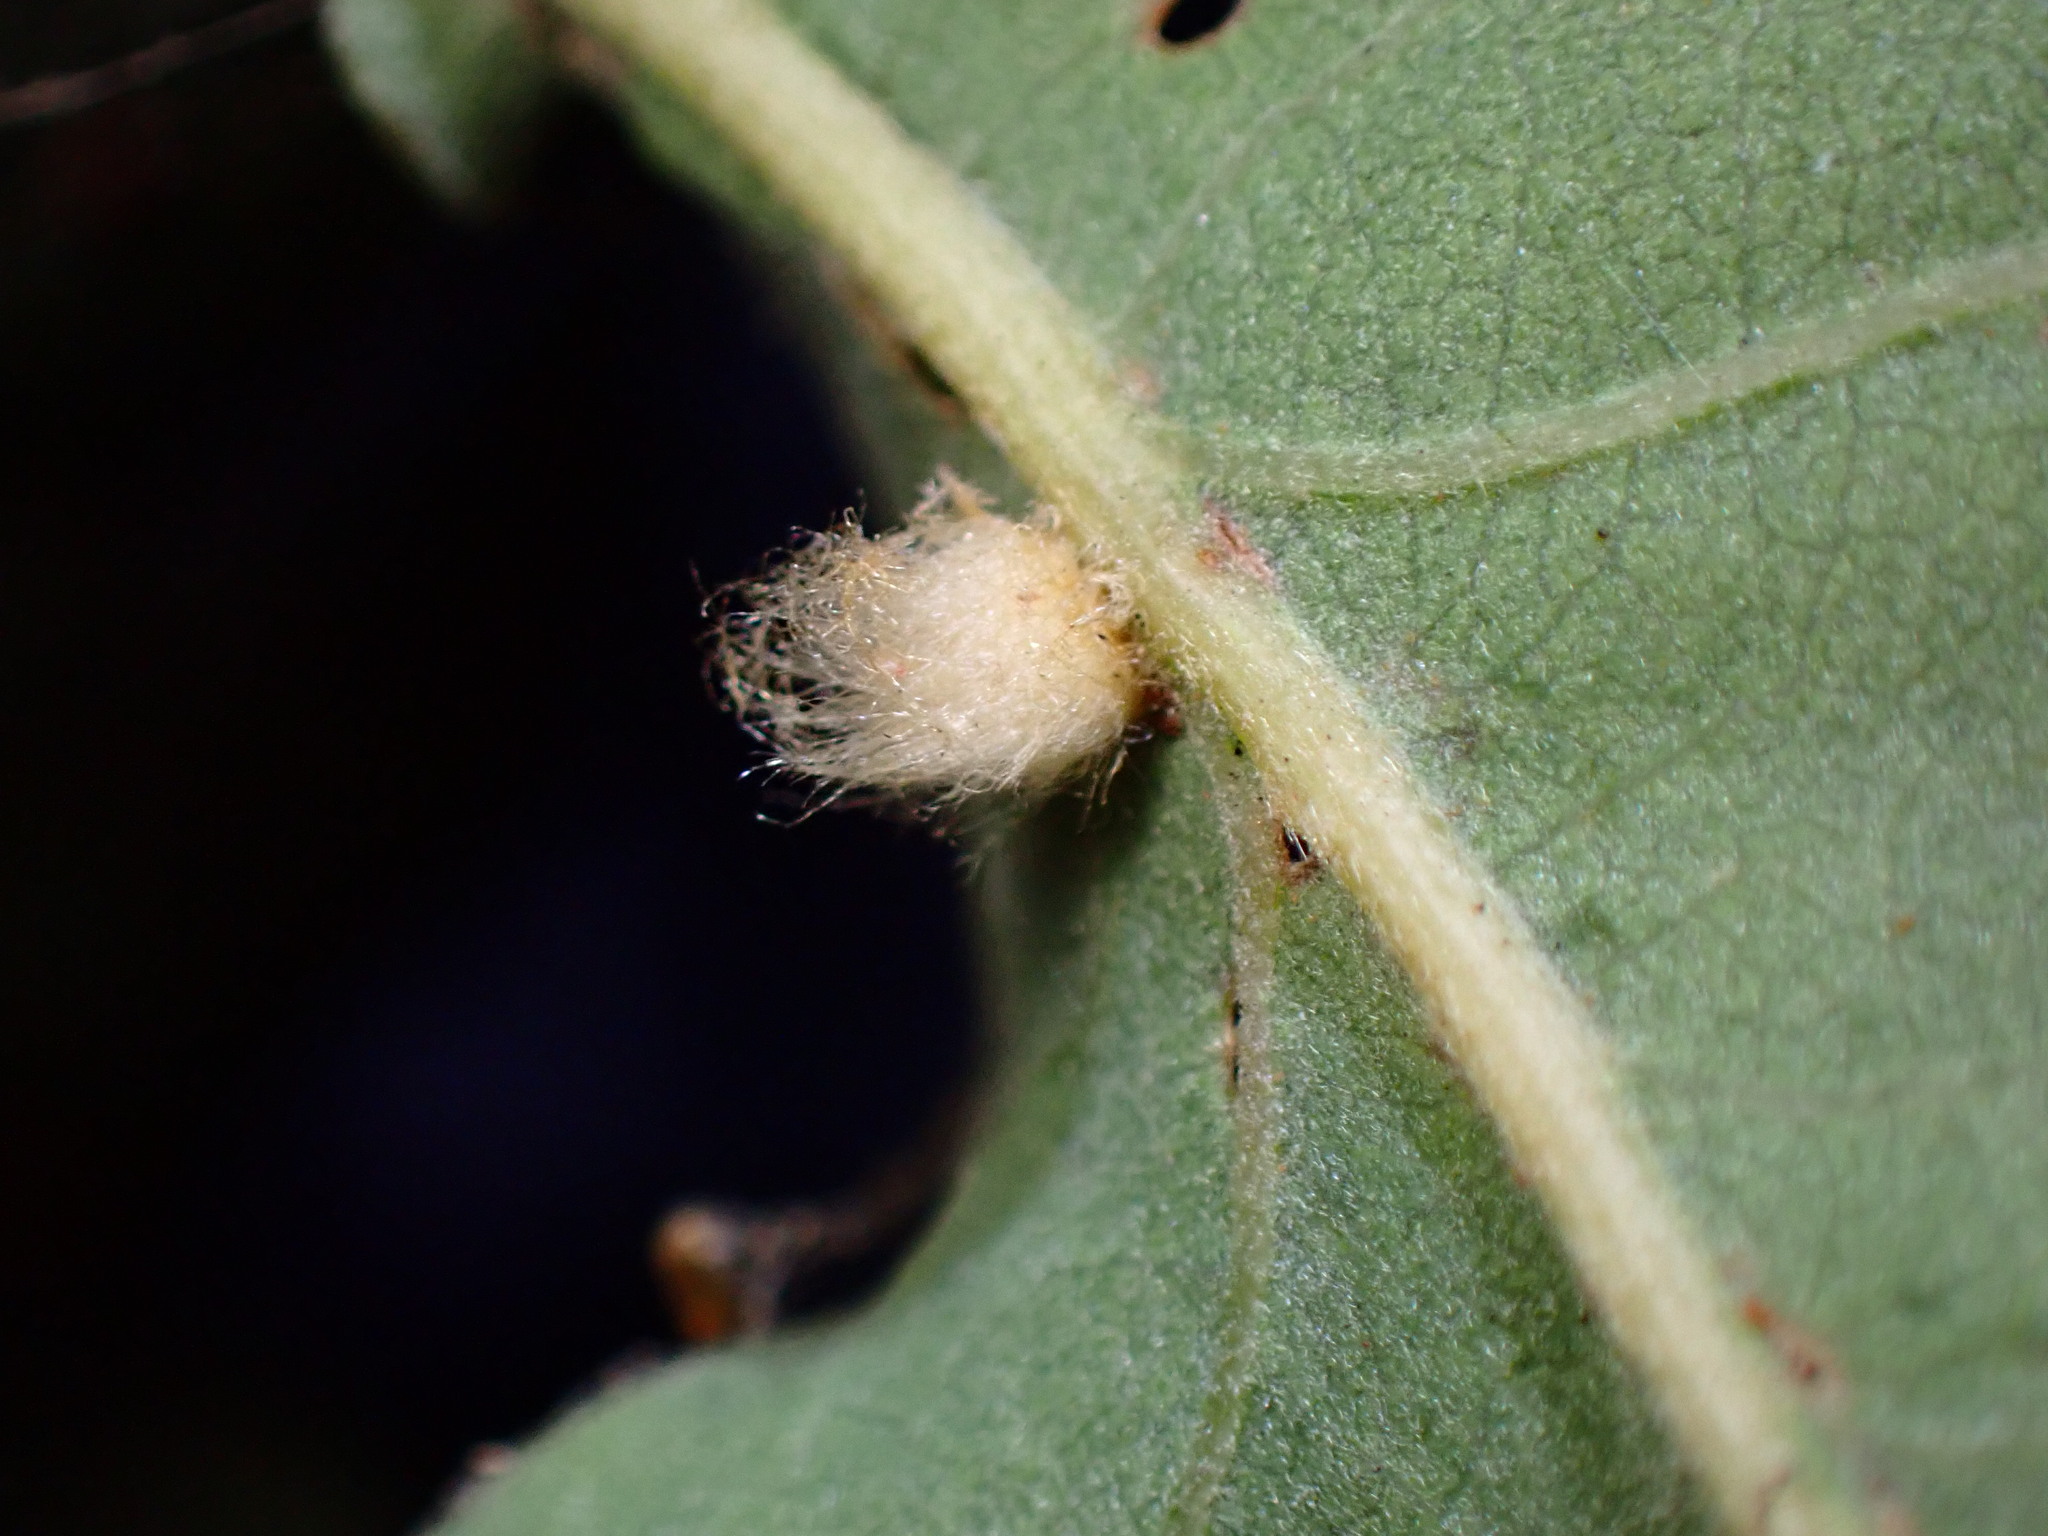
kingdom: Animalia
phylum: Arthropoda
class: Insecta
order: Hymenoptera
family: Cynipidae
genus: Andricus
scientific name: Andricus Druon fullawayi
